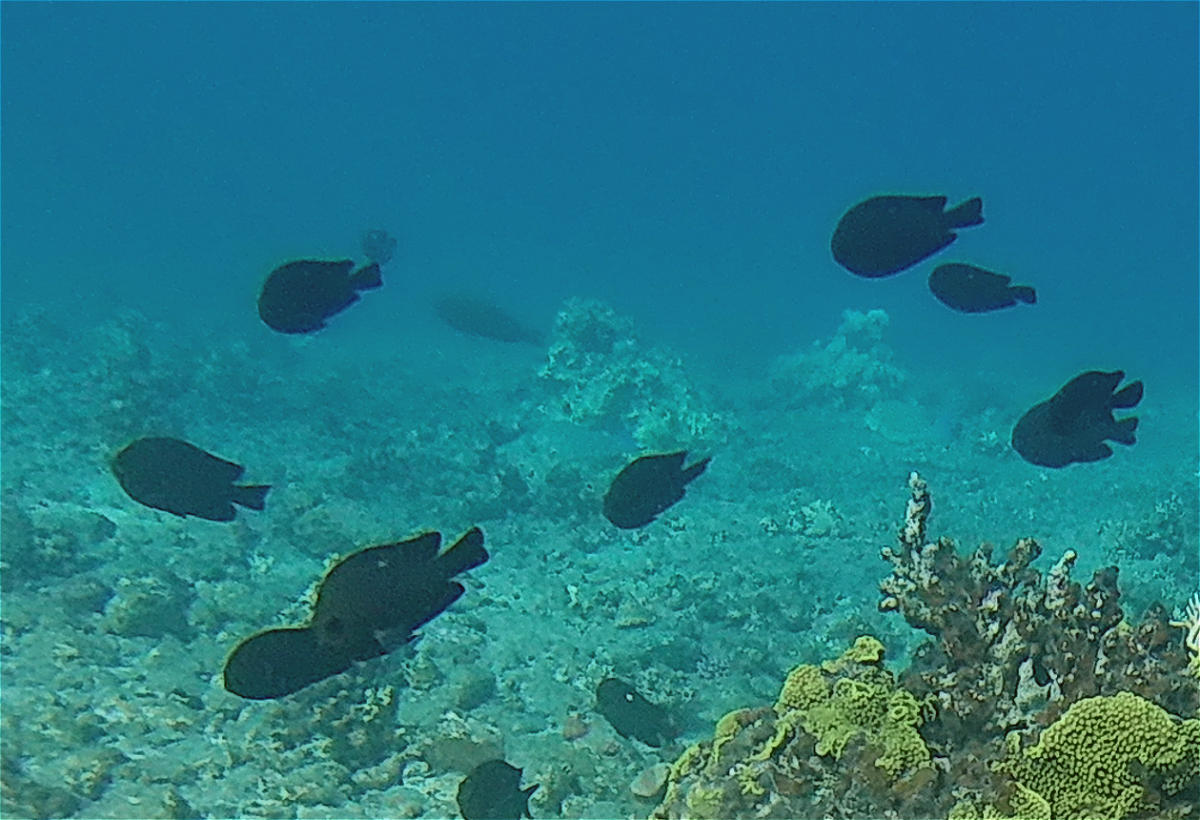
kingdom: Animalia
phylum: Chordata
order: Perciformes
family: Pomacentridae
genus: Dascyllus
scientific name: Dascyllus trimaculatus
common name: Threespot dascyllus
